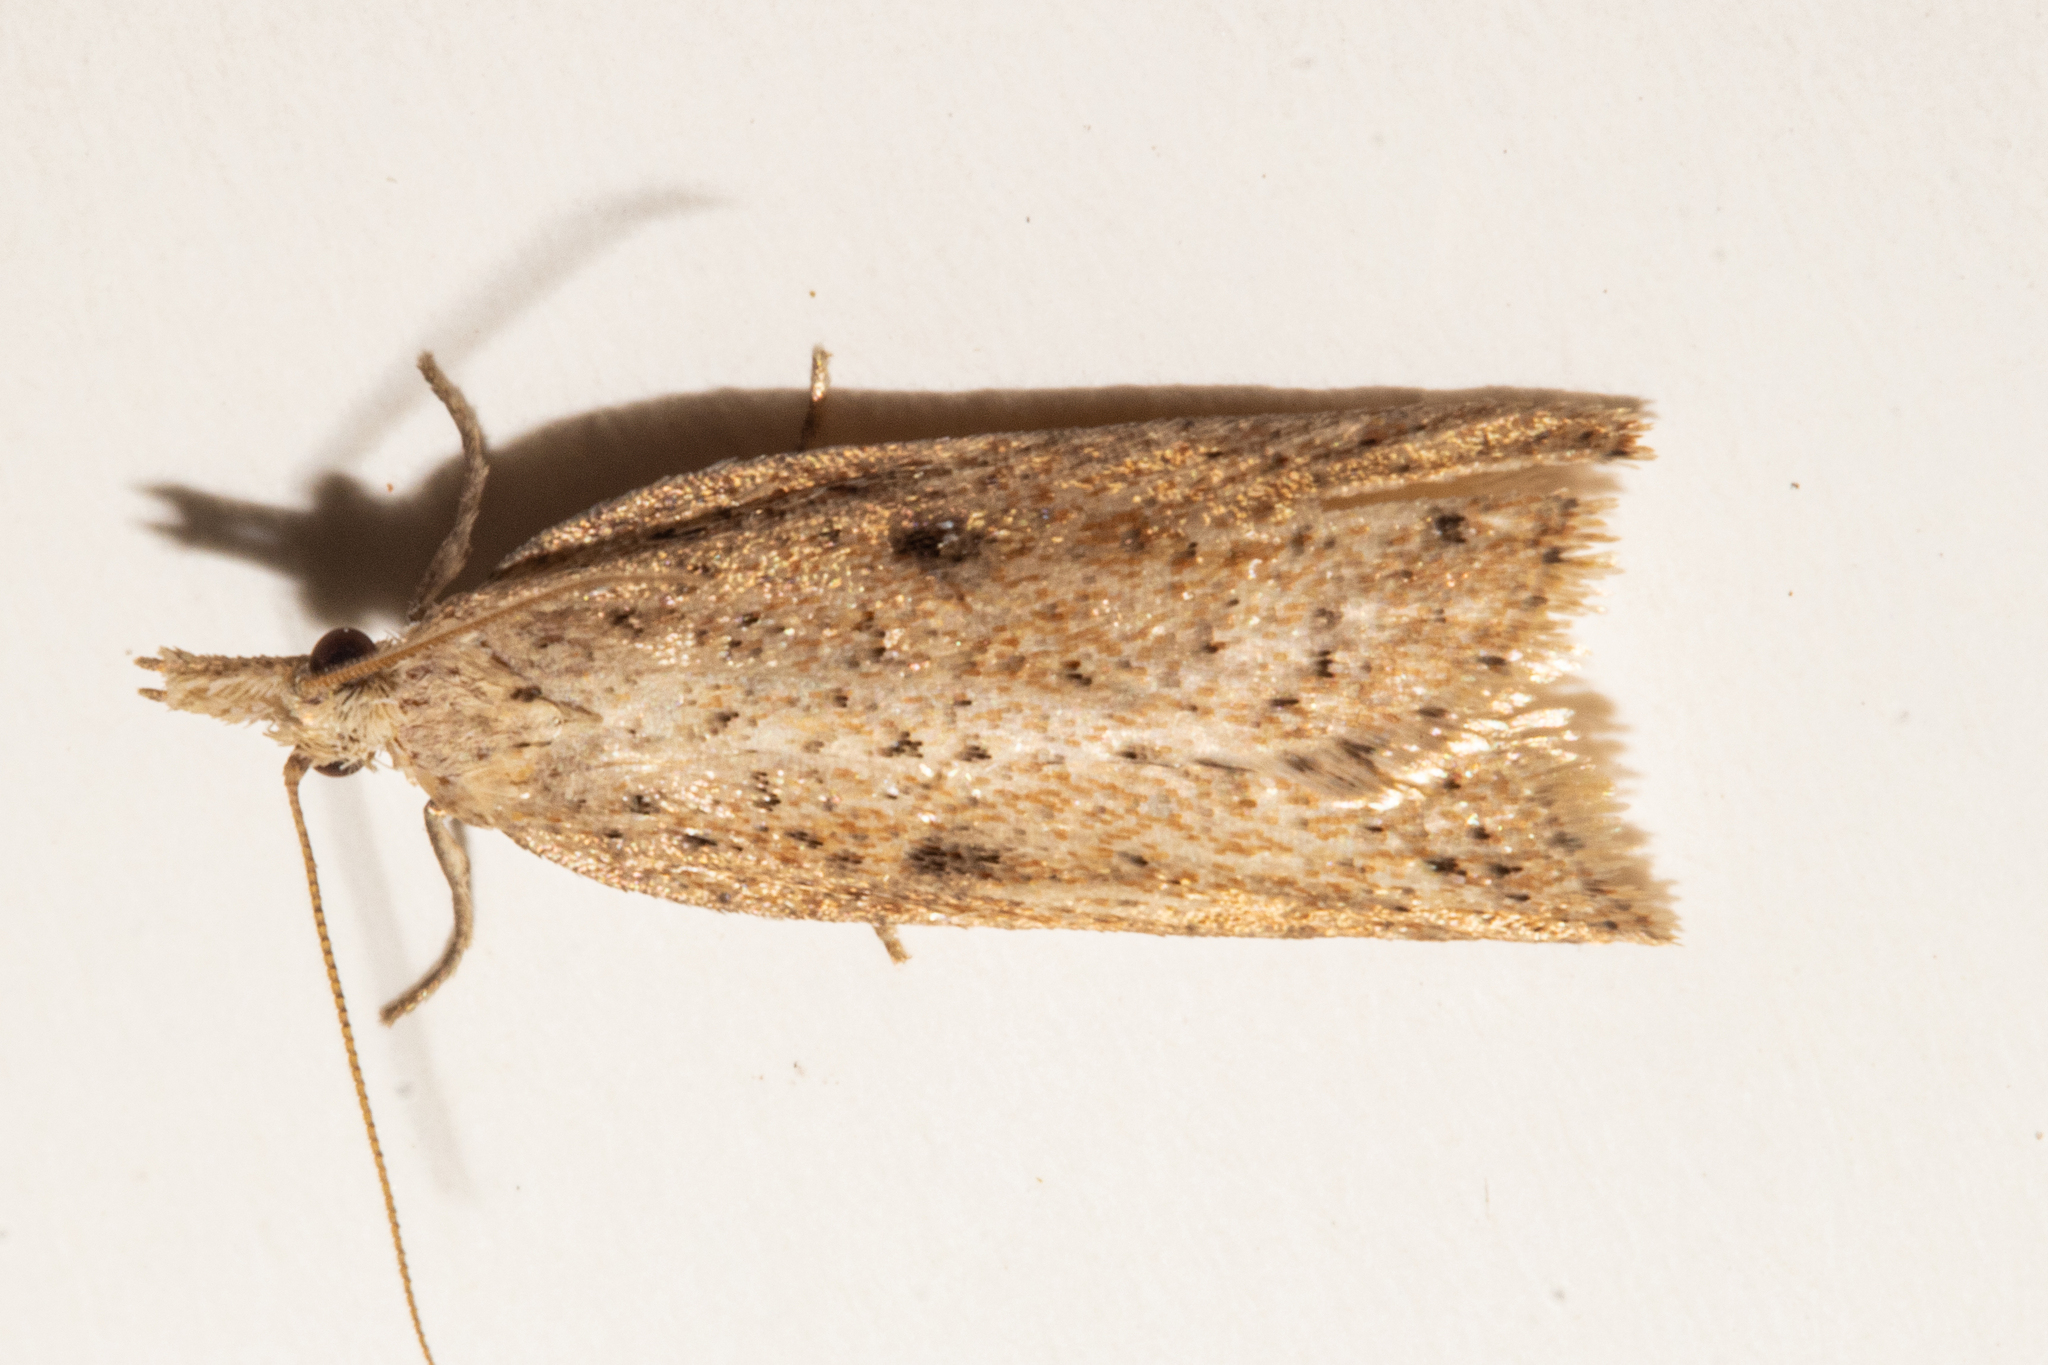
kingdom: Animalia
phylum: Arthropoda
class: Insecta
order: Lepidoptera
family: Tortricidae
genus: Apoctena
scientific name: Apoctena persecta
